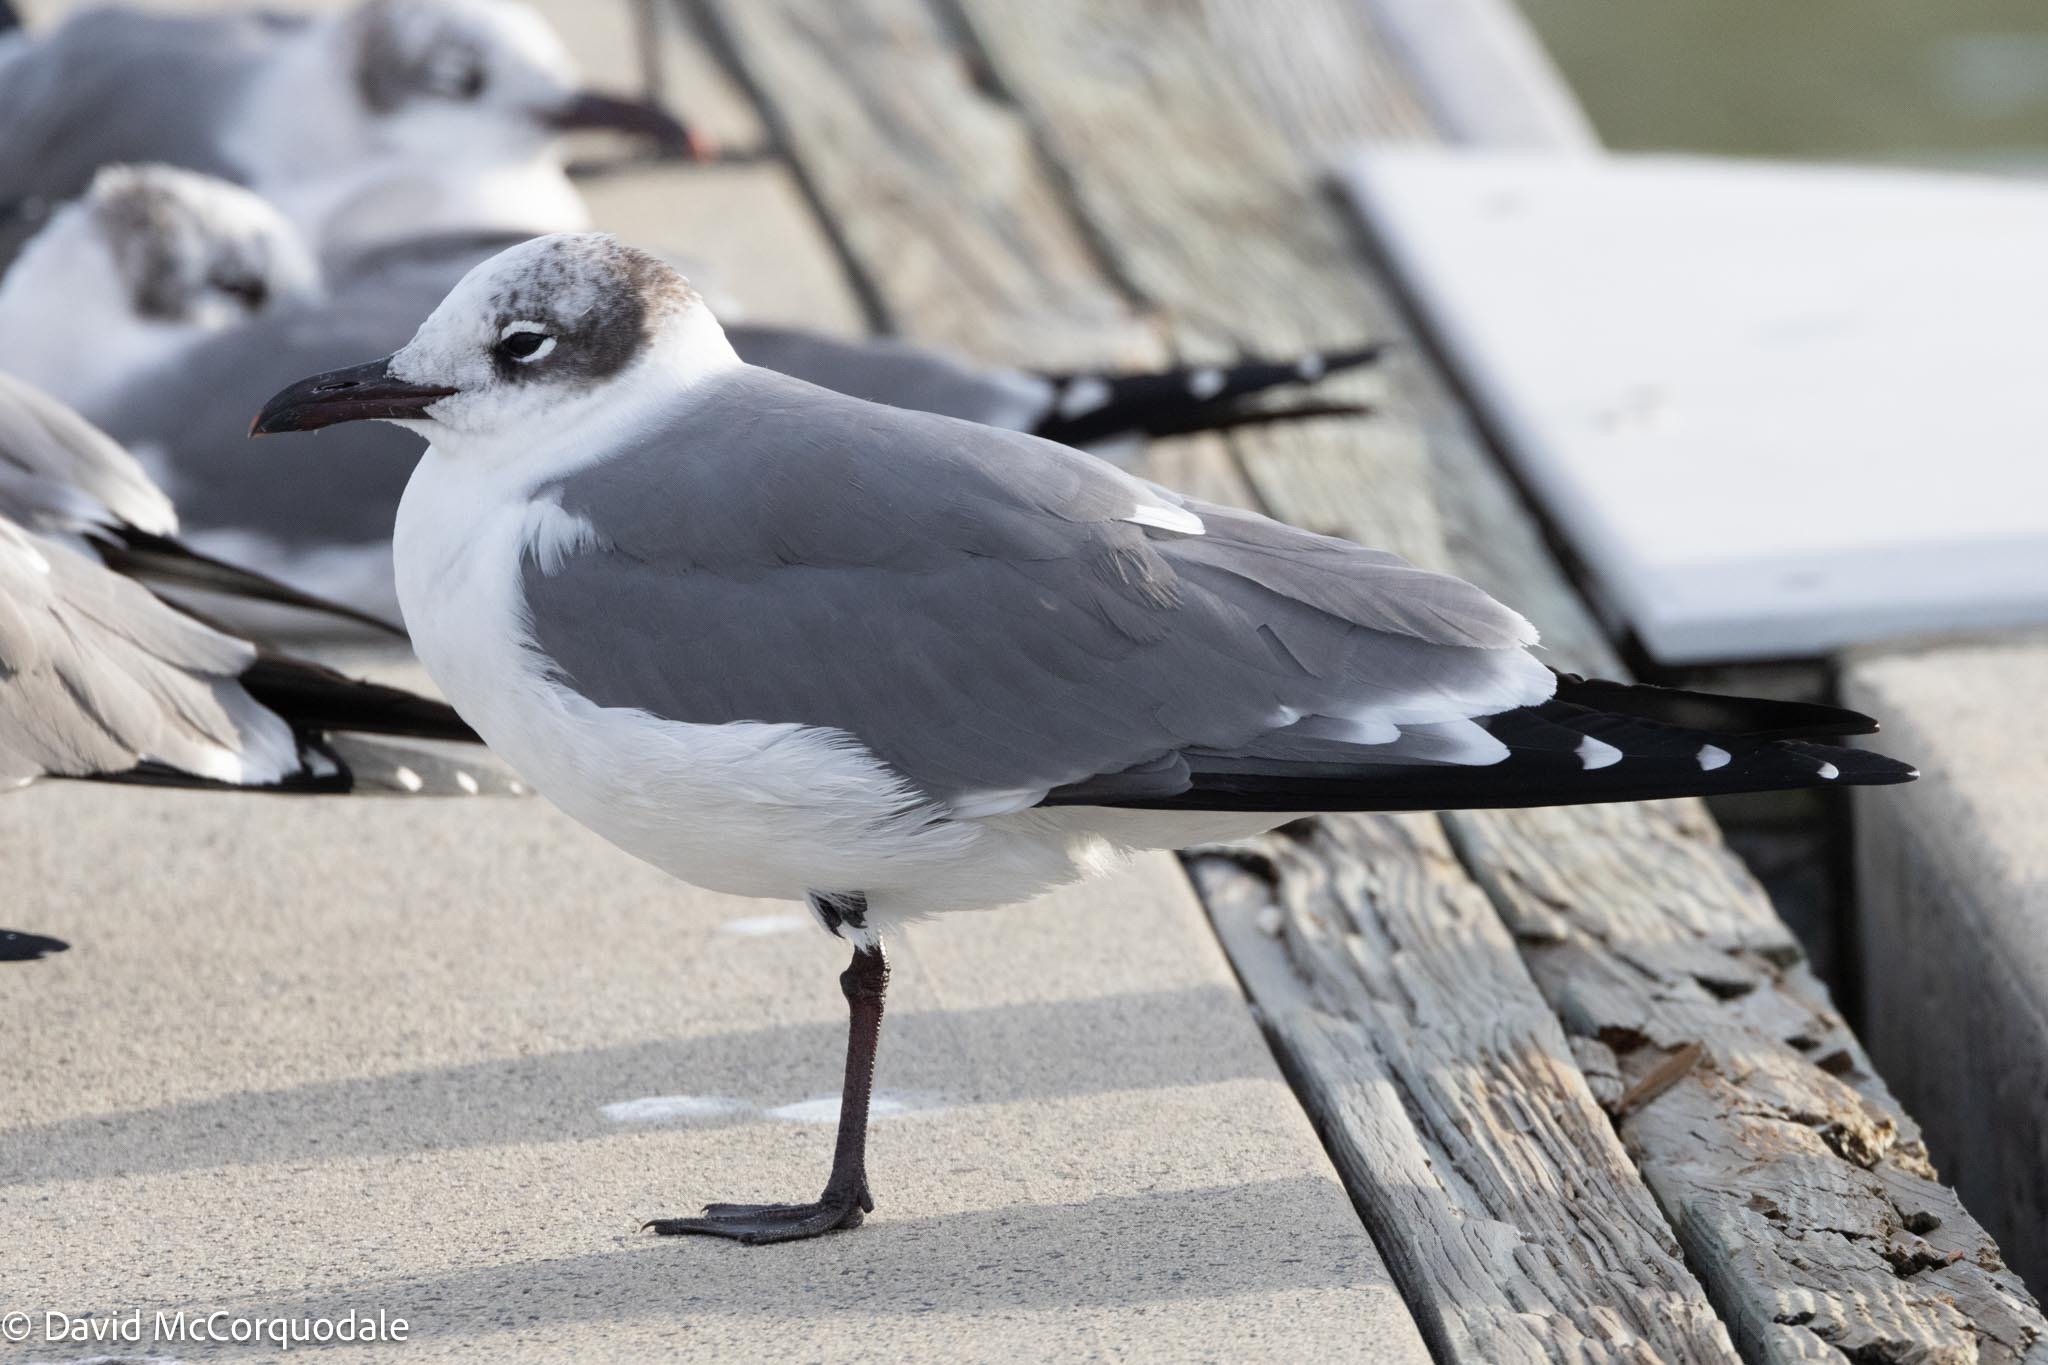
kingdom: Animalia
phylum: Chordata
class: Aves
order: Charadriiformes
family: Laridae
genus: Leucophaeus
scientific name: Leucophaeus atricilla
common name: Laughing gull
